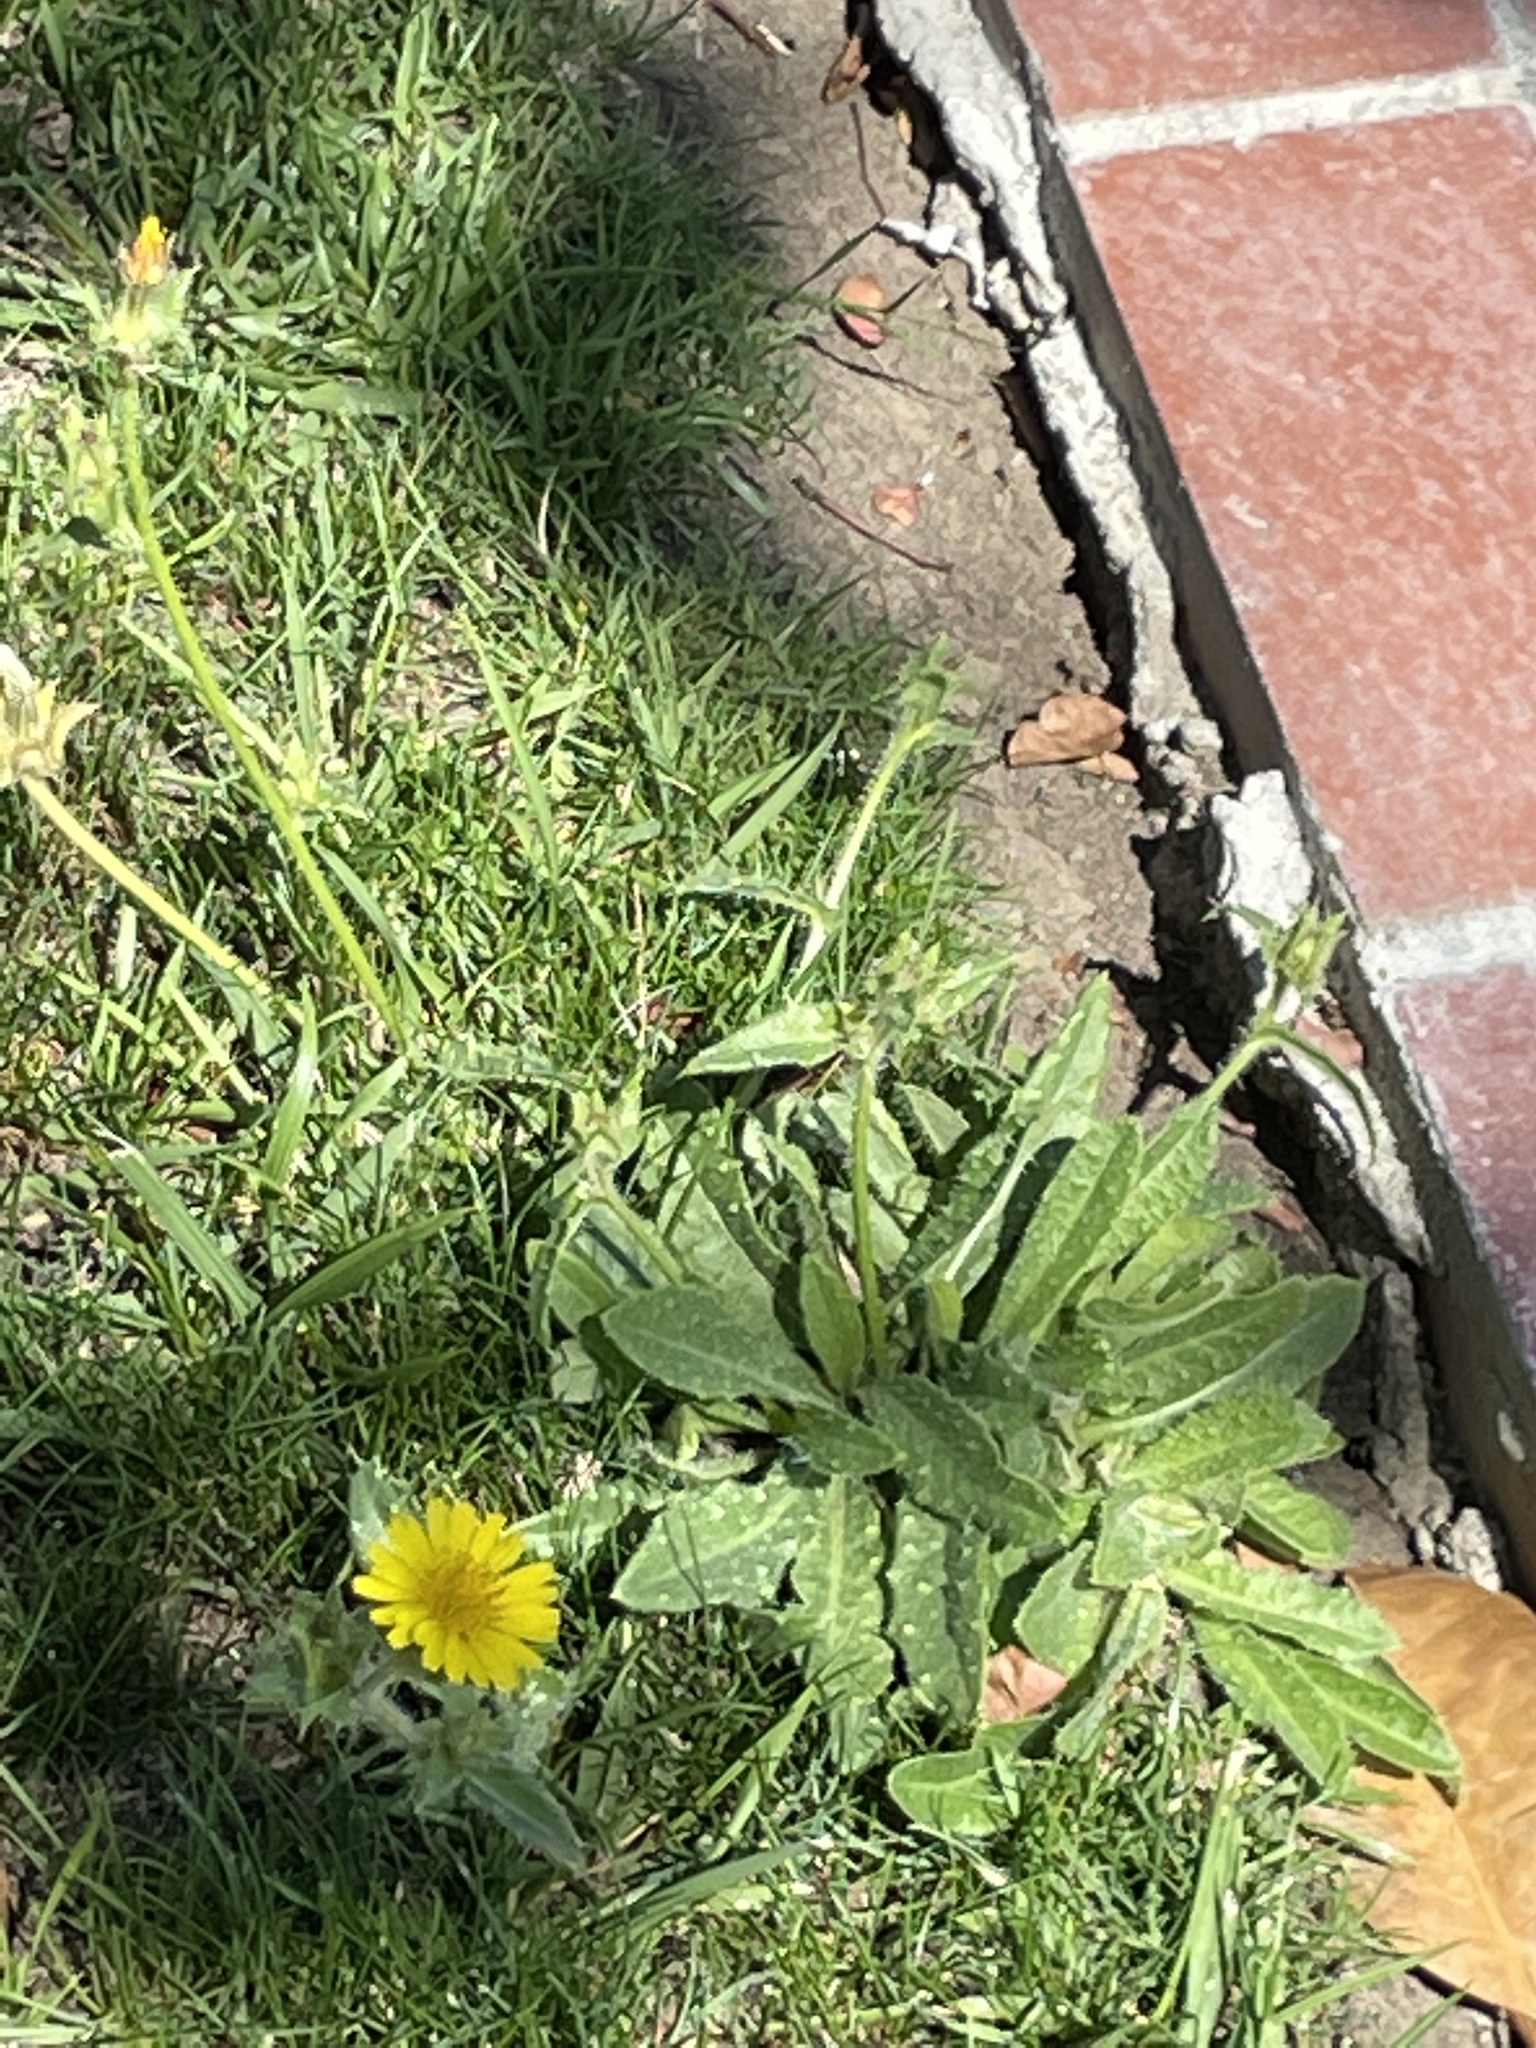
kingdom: Plantae
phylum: Tracheophyta
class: Magnoliopsida
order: Asterales
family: Asteraceae
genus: Helminthotheca
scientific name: Helminthotheca echioides
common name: Ox-tongue
